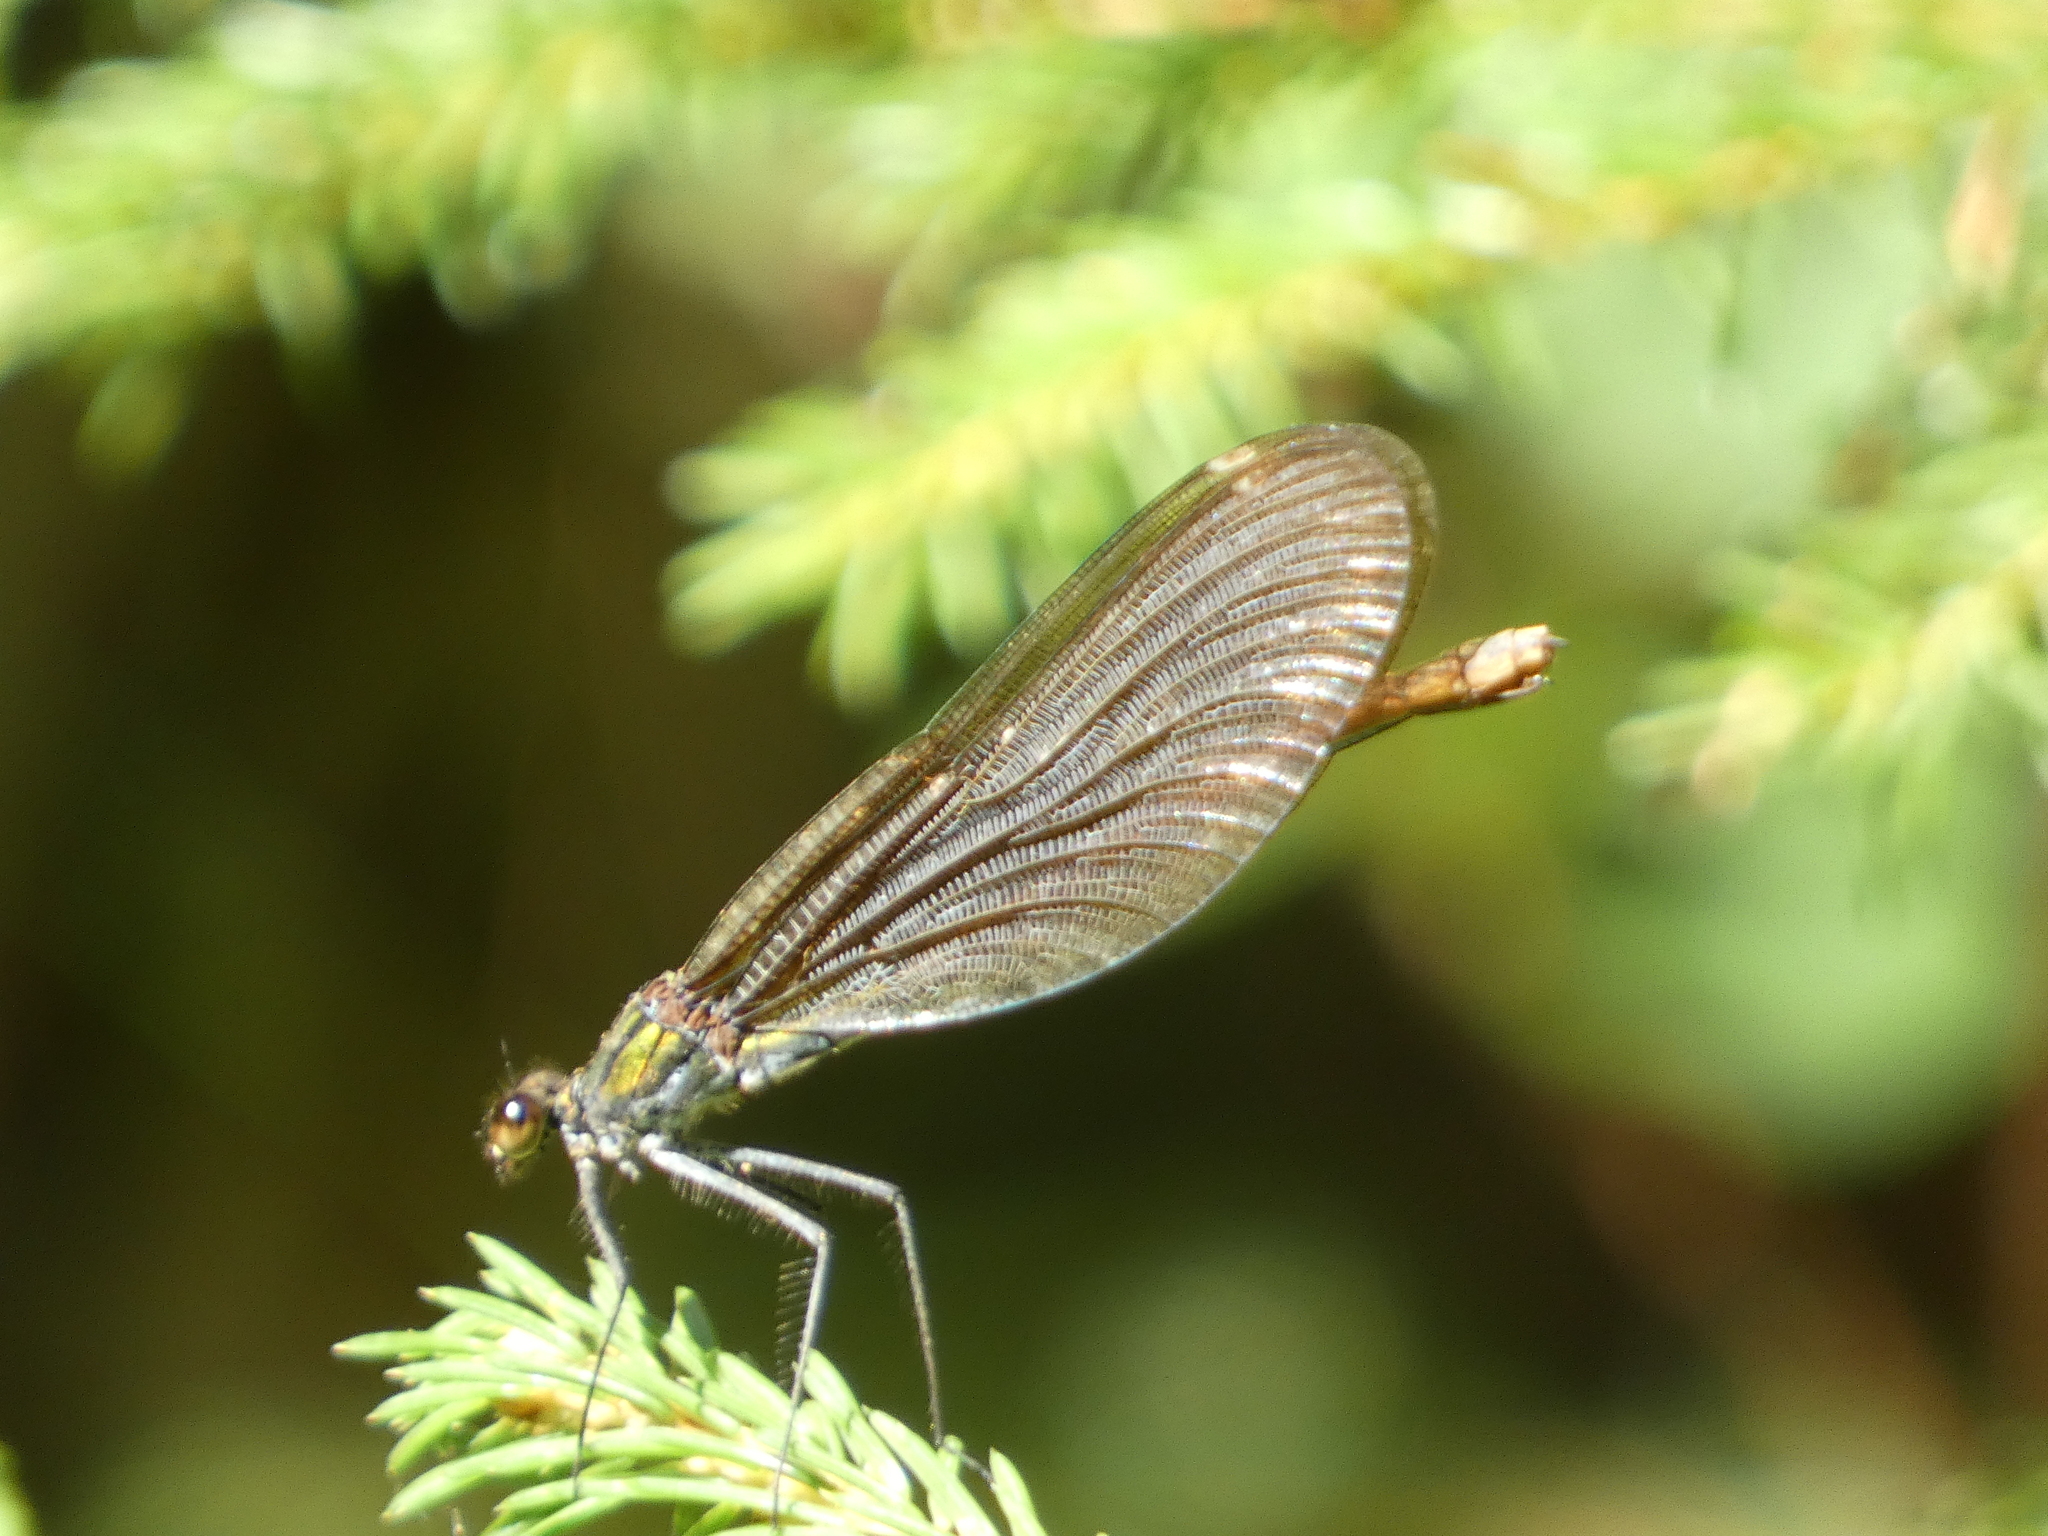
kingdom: Animalia
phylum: Arthropoda
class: Insecta
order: Odonata
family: Calopterygidae
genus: Calopteryx
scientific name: Calopteryx virgo
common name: Beautiful demoiselle
